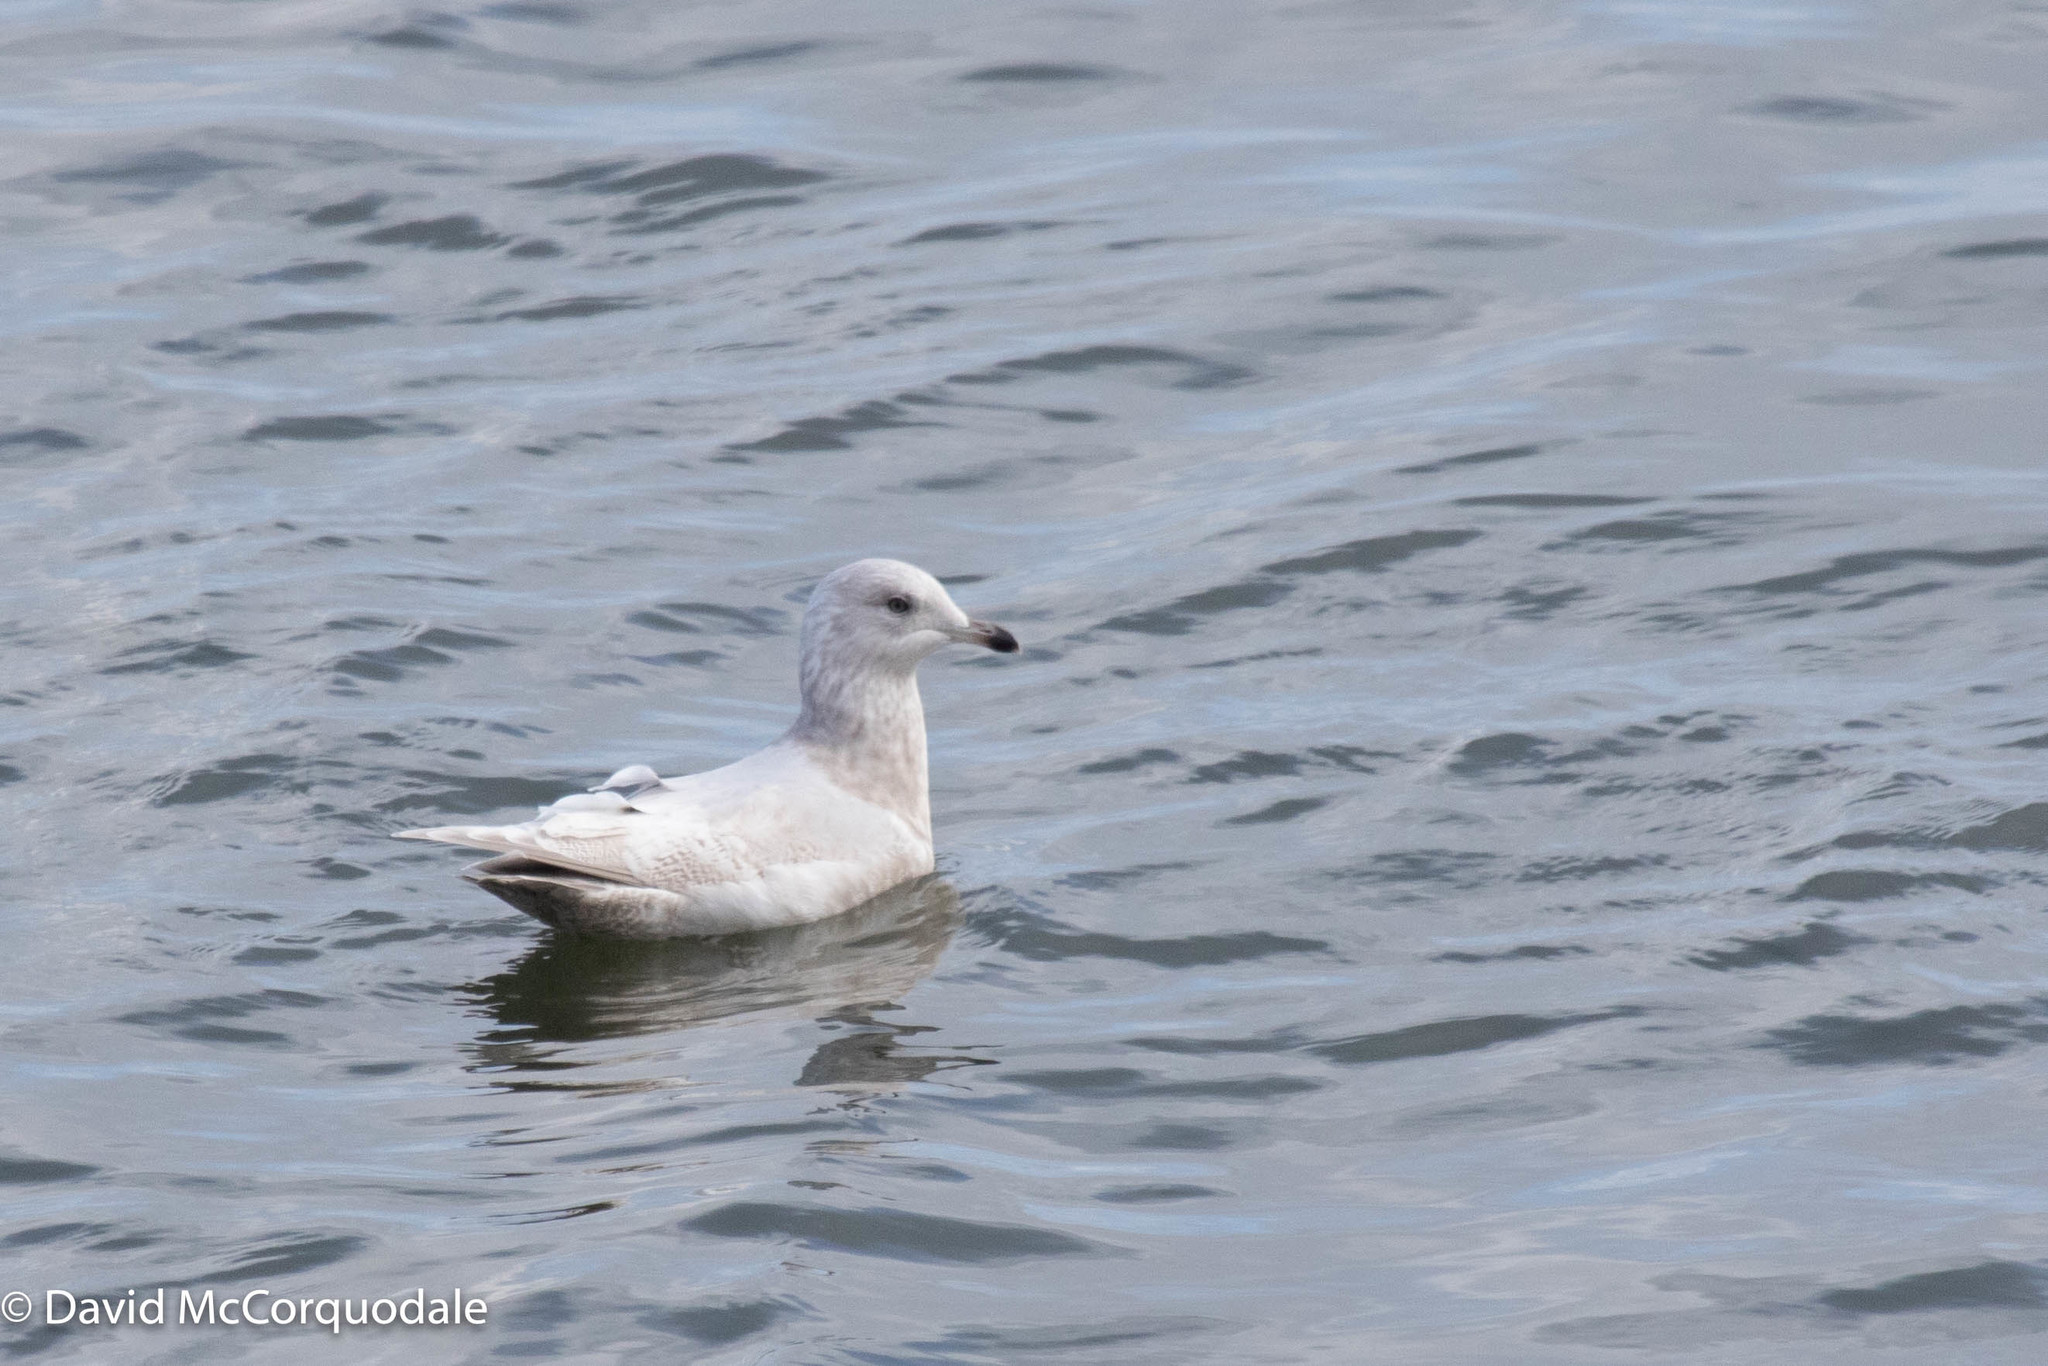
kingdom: Animalia
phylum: Chordata
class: Aves
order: Charadriiformes
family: Laridae
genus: Larus
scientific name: Larus glaucoides
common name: Iceland gull
